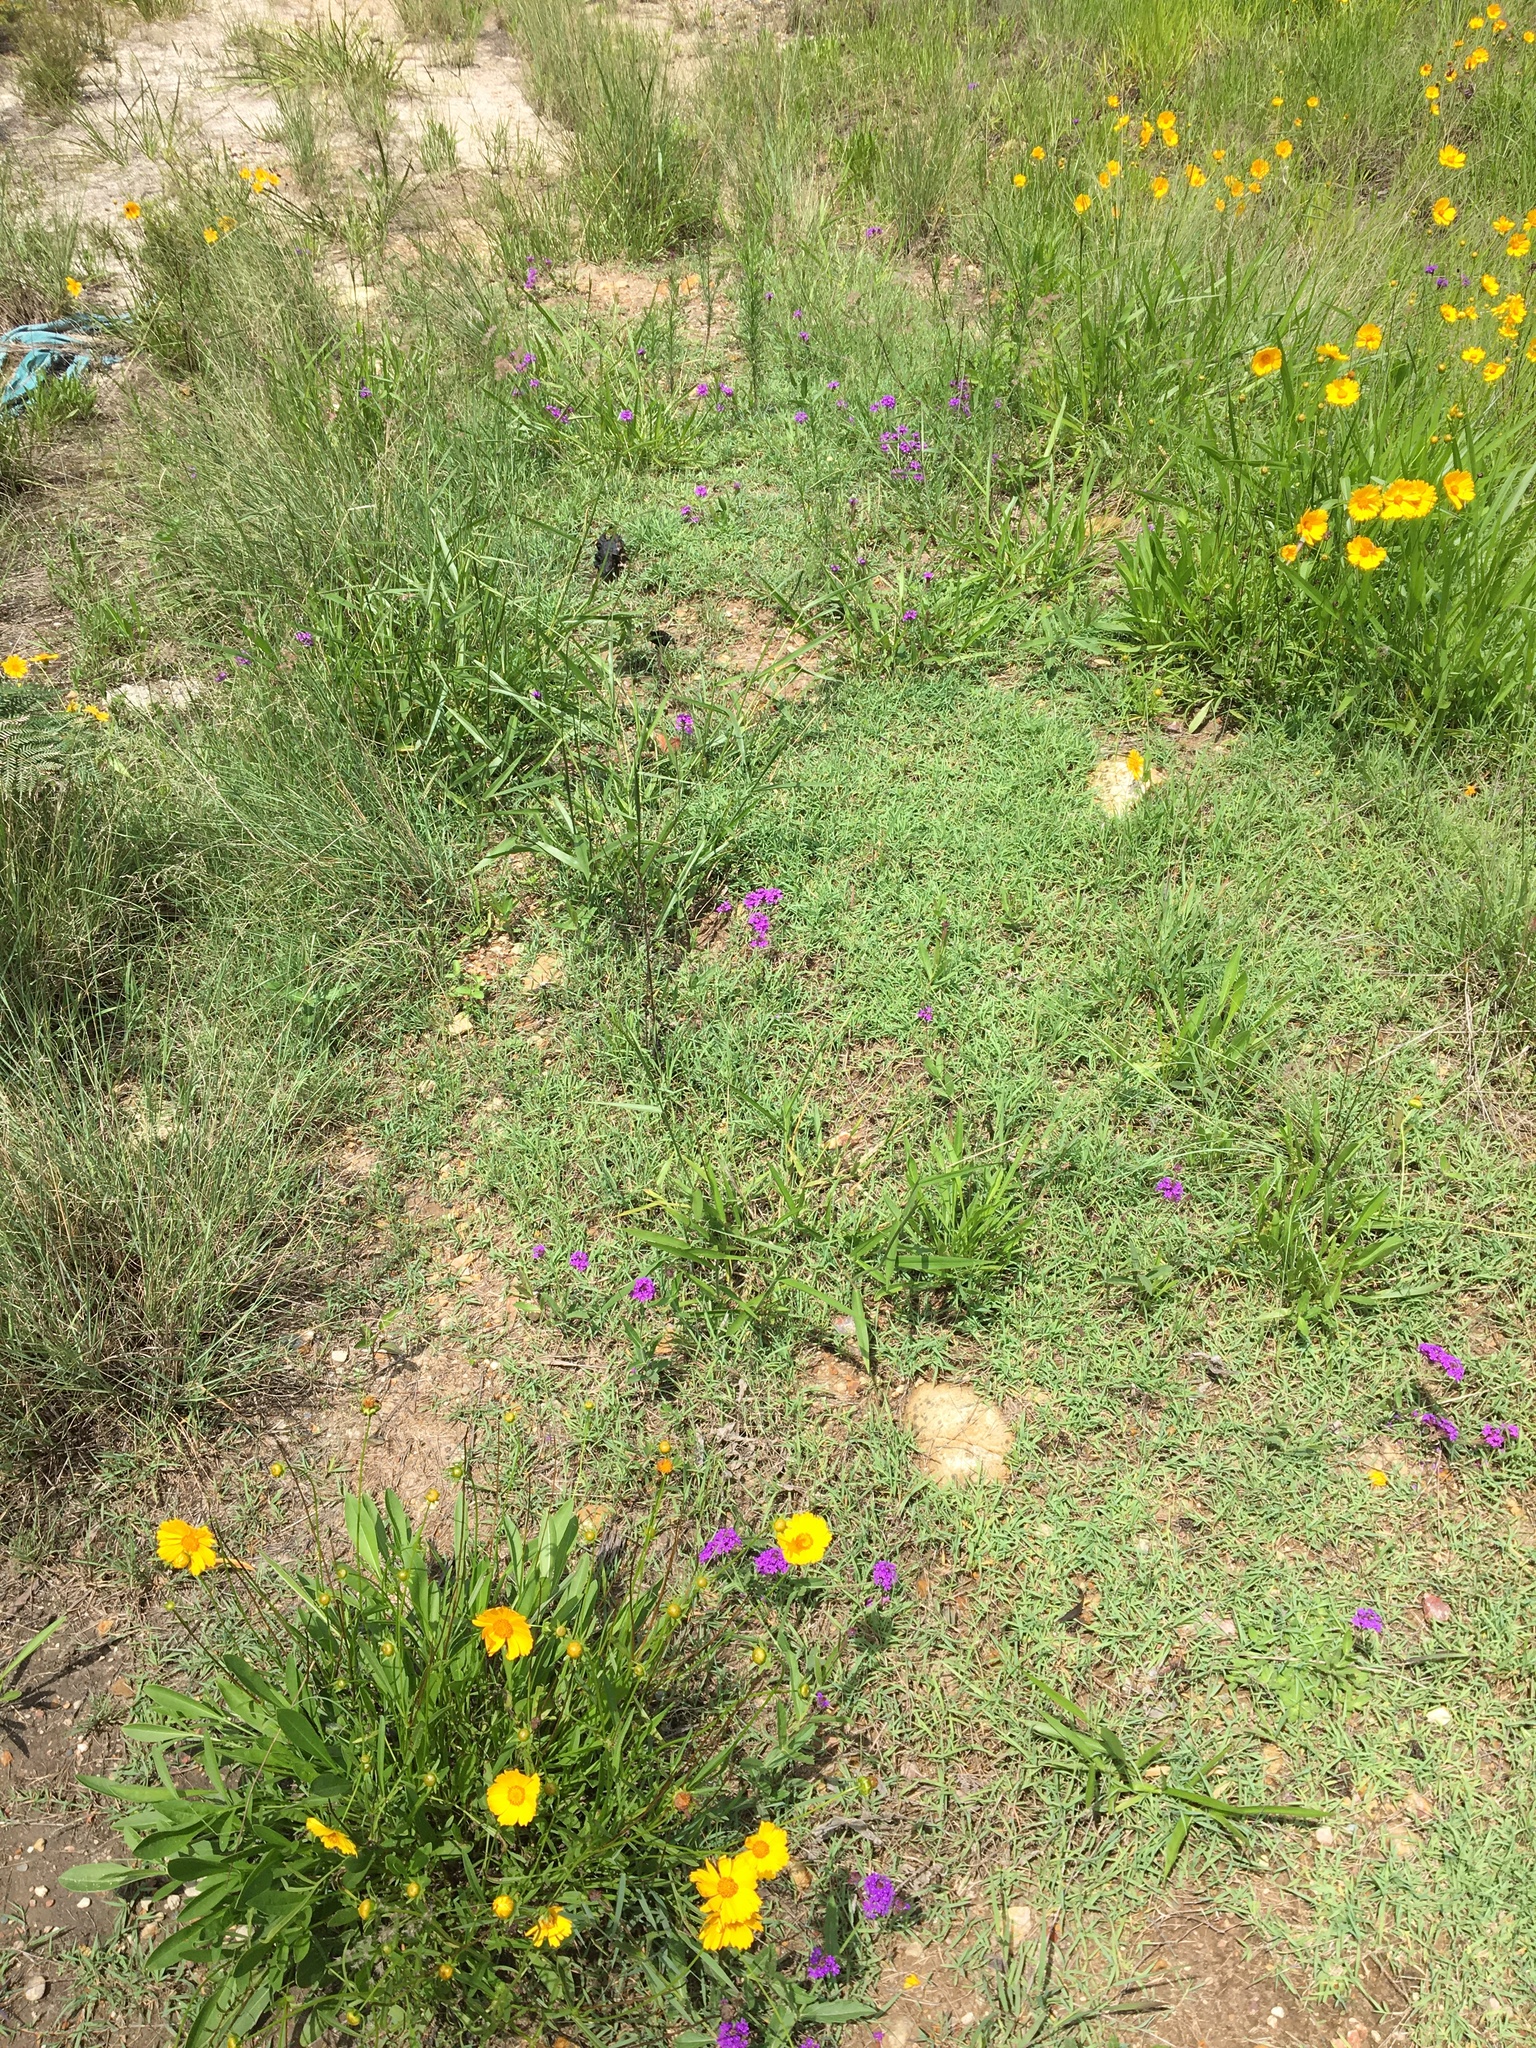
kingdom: Plantae
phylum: Tracheophyta
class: Magnoliopsida
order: Lamiales
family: Verbenaceae
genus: Verbena
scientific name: Verbena rigida
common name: Slender vervain
